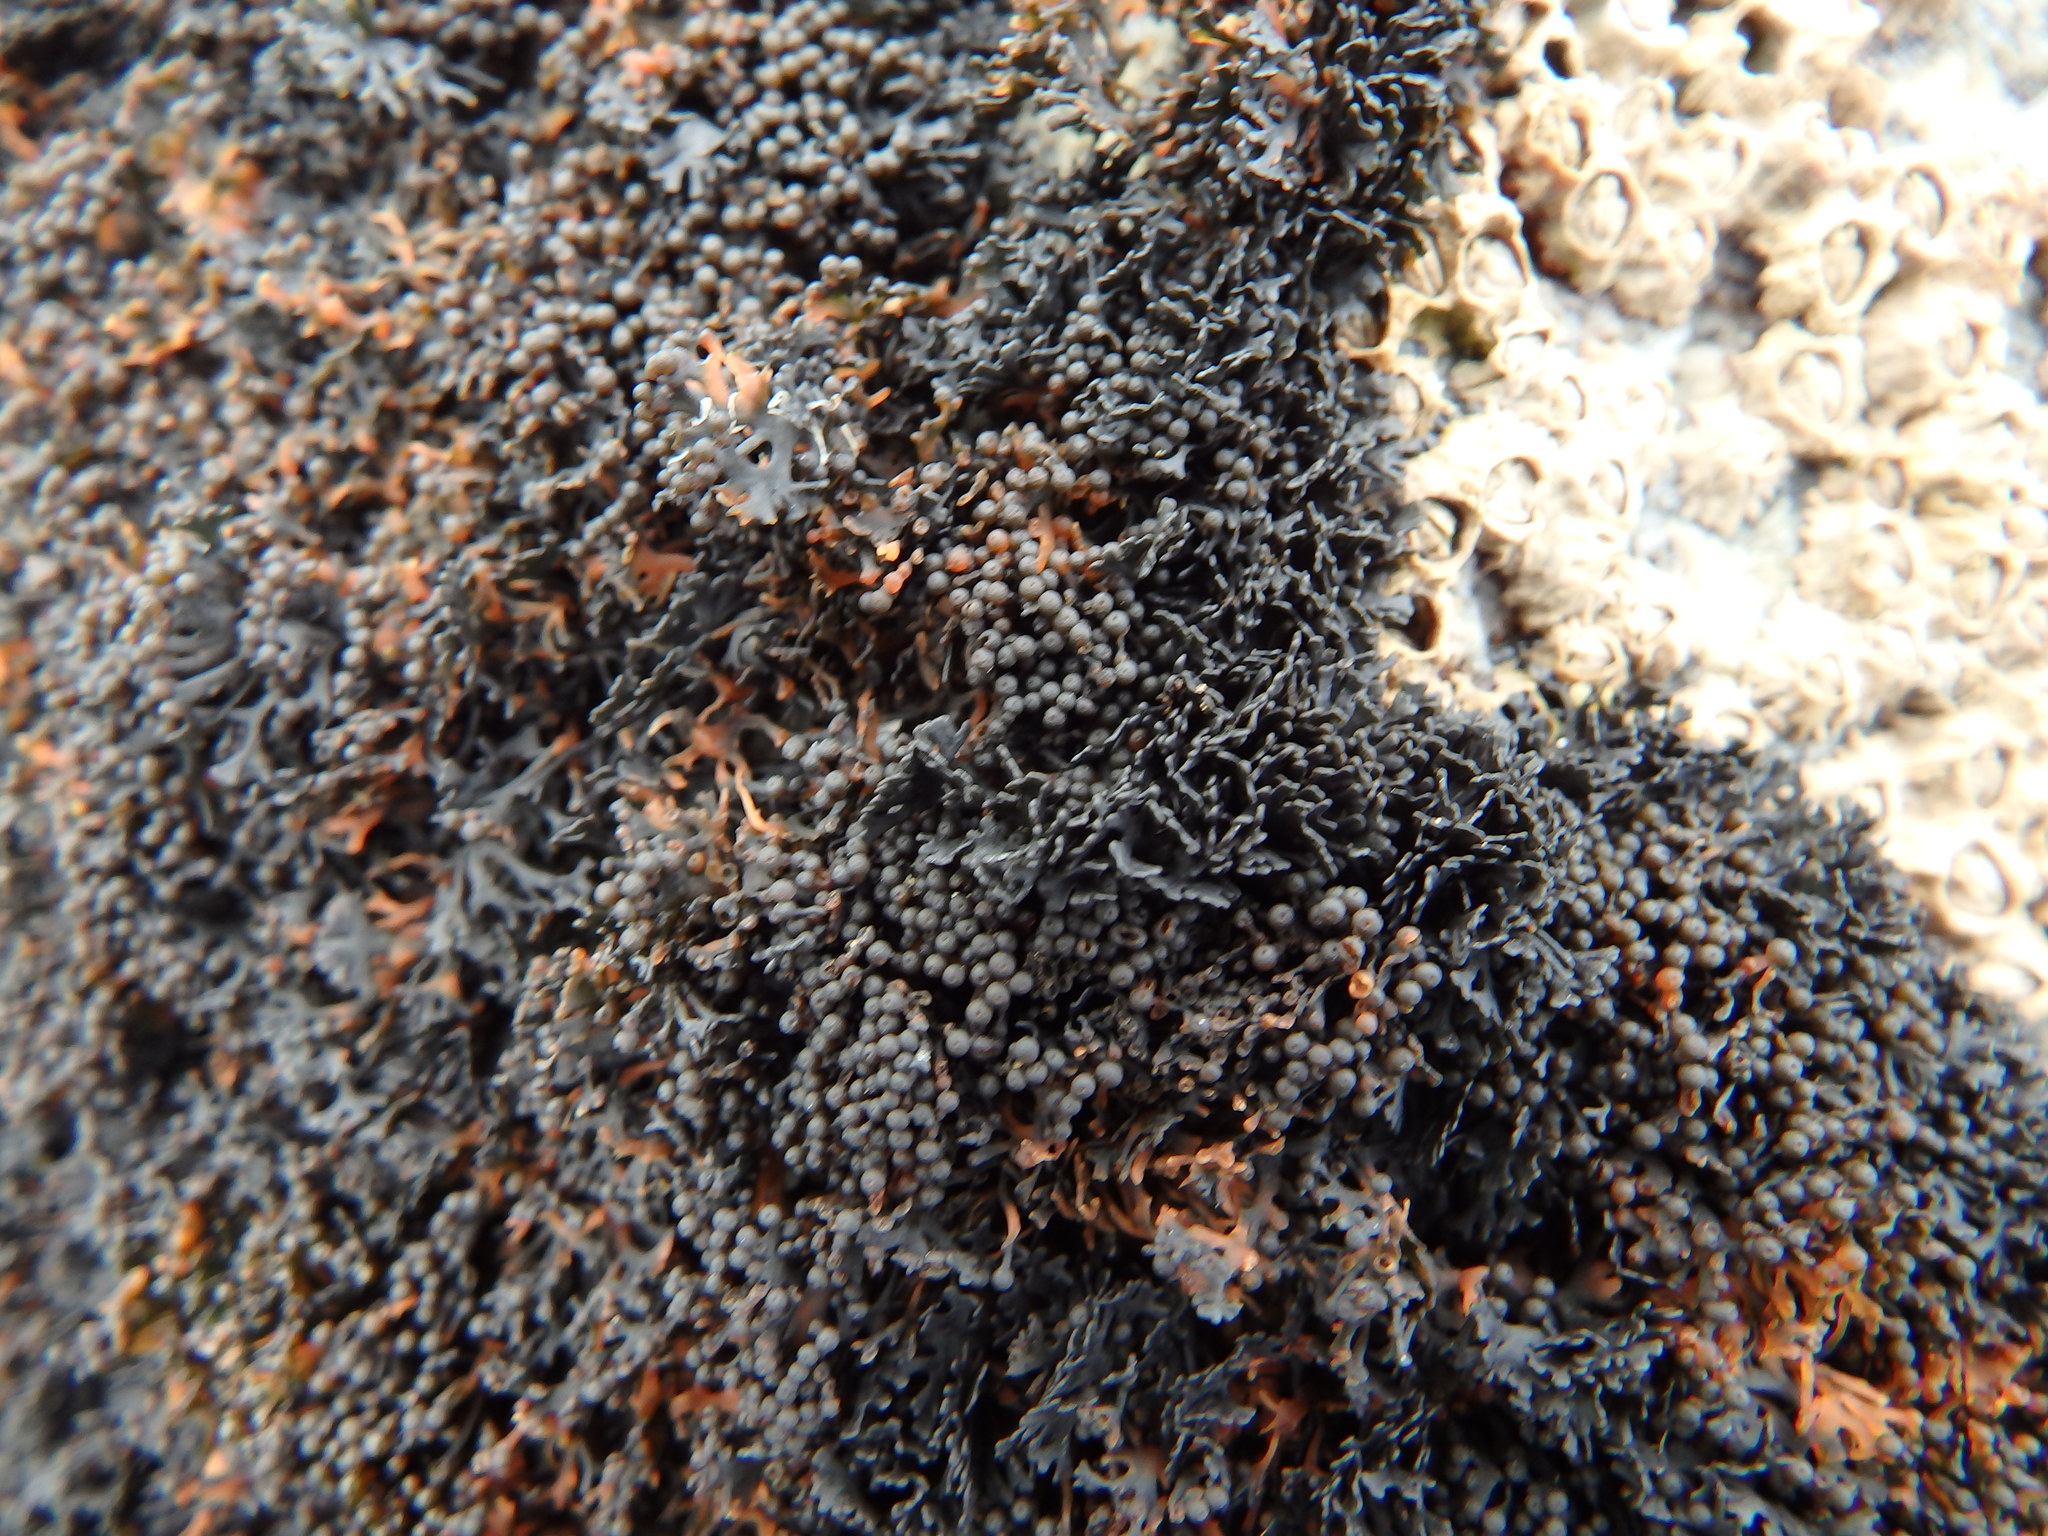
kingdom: Fungi
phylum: Ascomycota
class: Lichinomycetes
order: Lichinales
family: Lichinaceae
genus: Lichina
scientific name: Lichina pygmaea
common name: Black lichen
